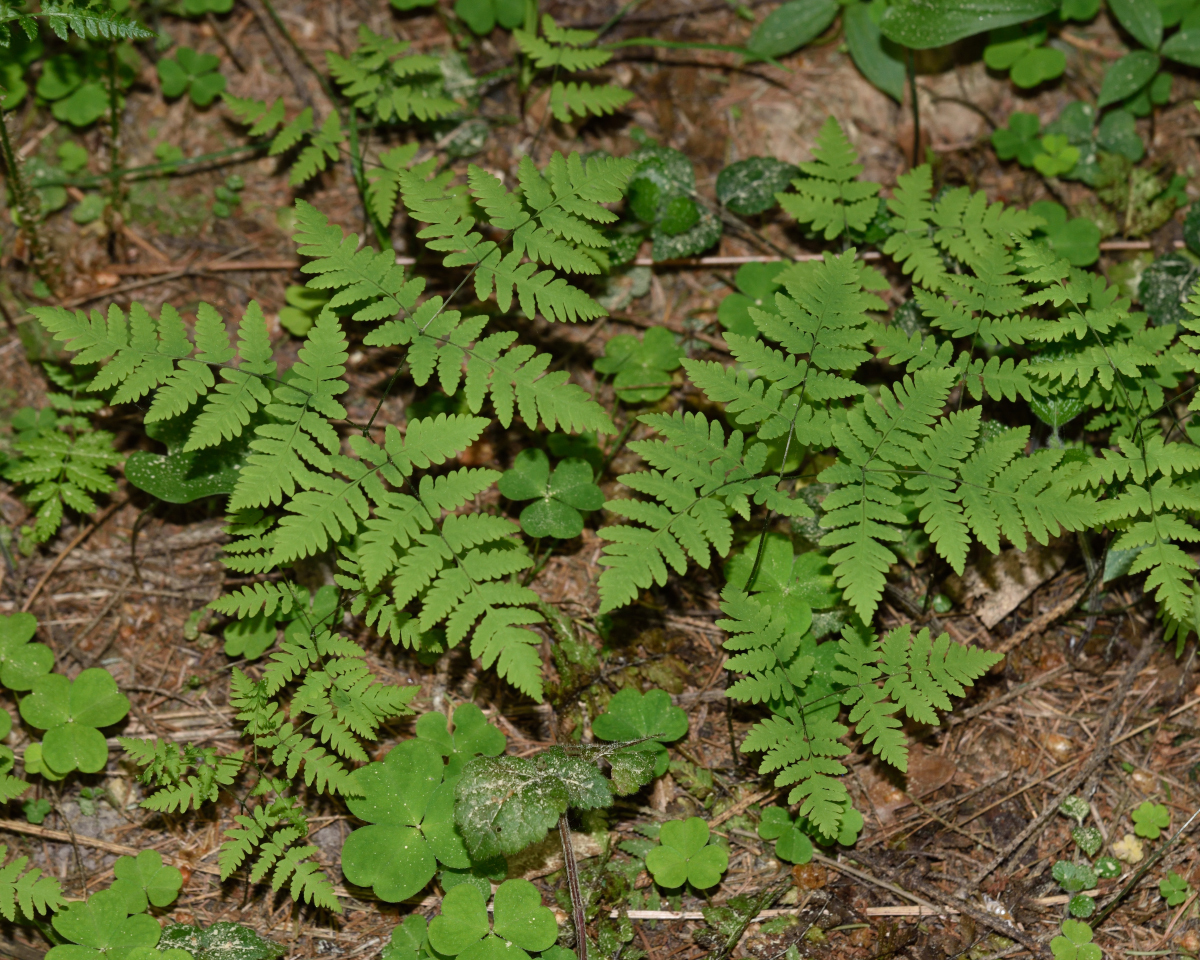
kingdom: Plantae
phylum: Tracheophyta
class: Polypodiopsida
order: Polypodiales
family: Cystopteridaceae
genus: Gymnocarpium
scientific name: Gymnocarpium dryopteris
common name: Oak fern
